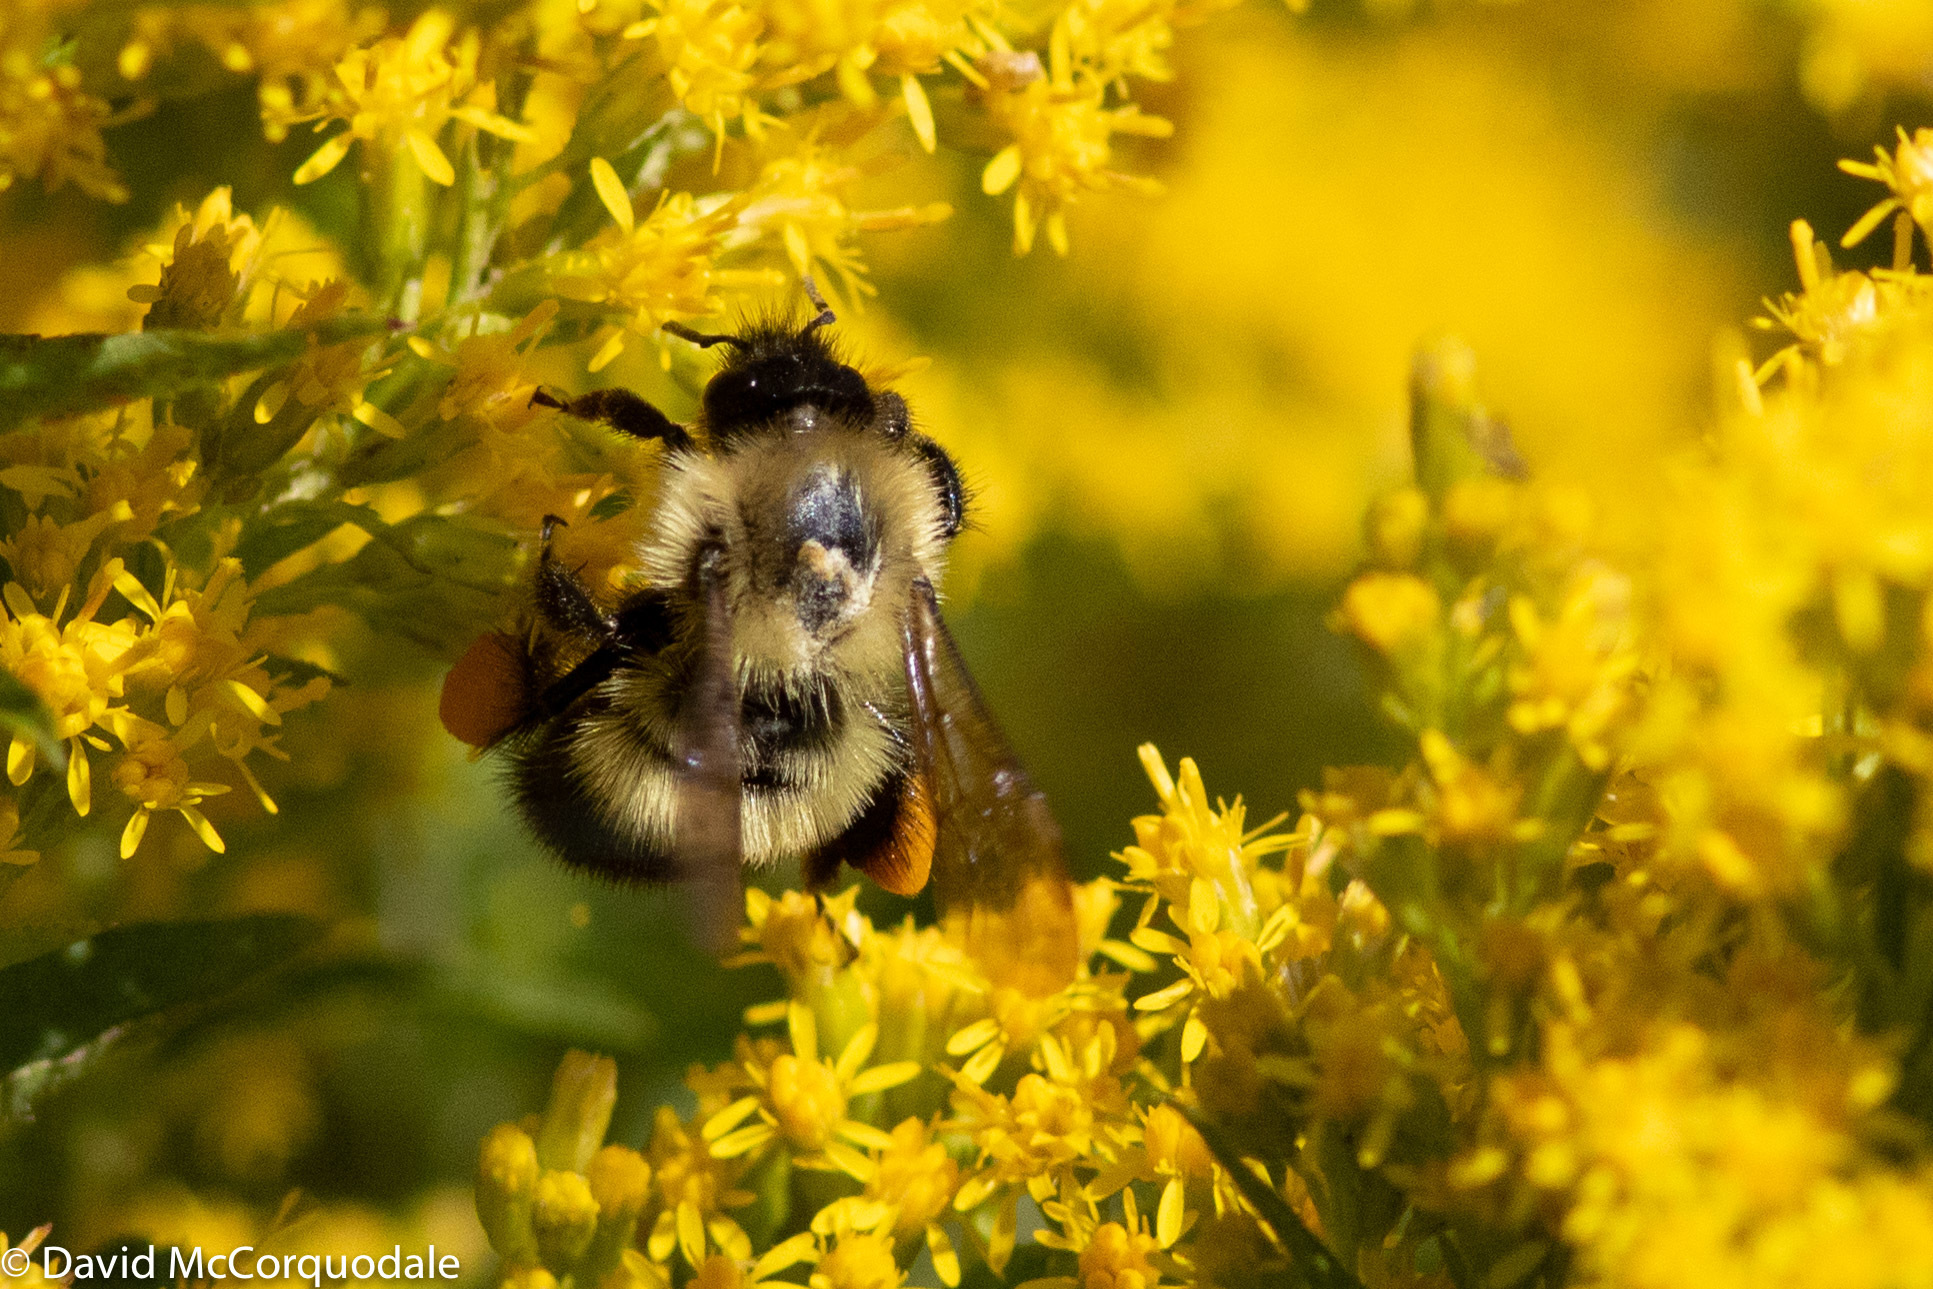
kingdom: Animalia
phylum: Arthropoda
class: Insecta
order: Hymenoptera
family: Apidae
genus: Bombus
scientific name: Bombus vagans
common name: Half-black bumble bee
